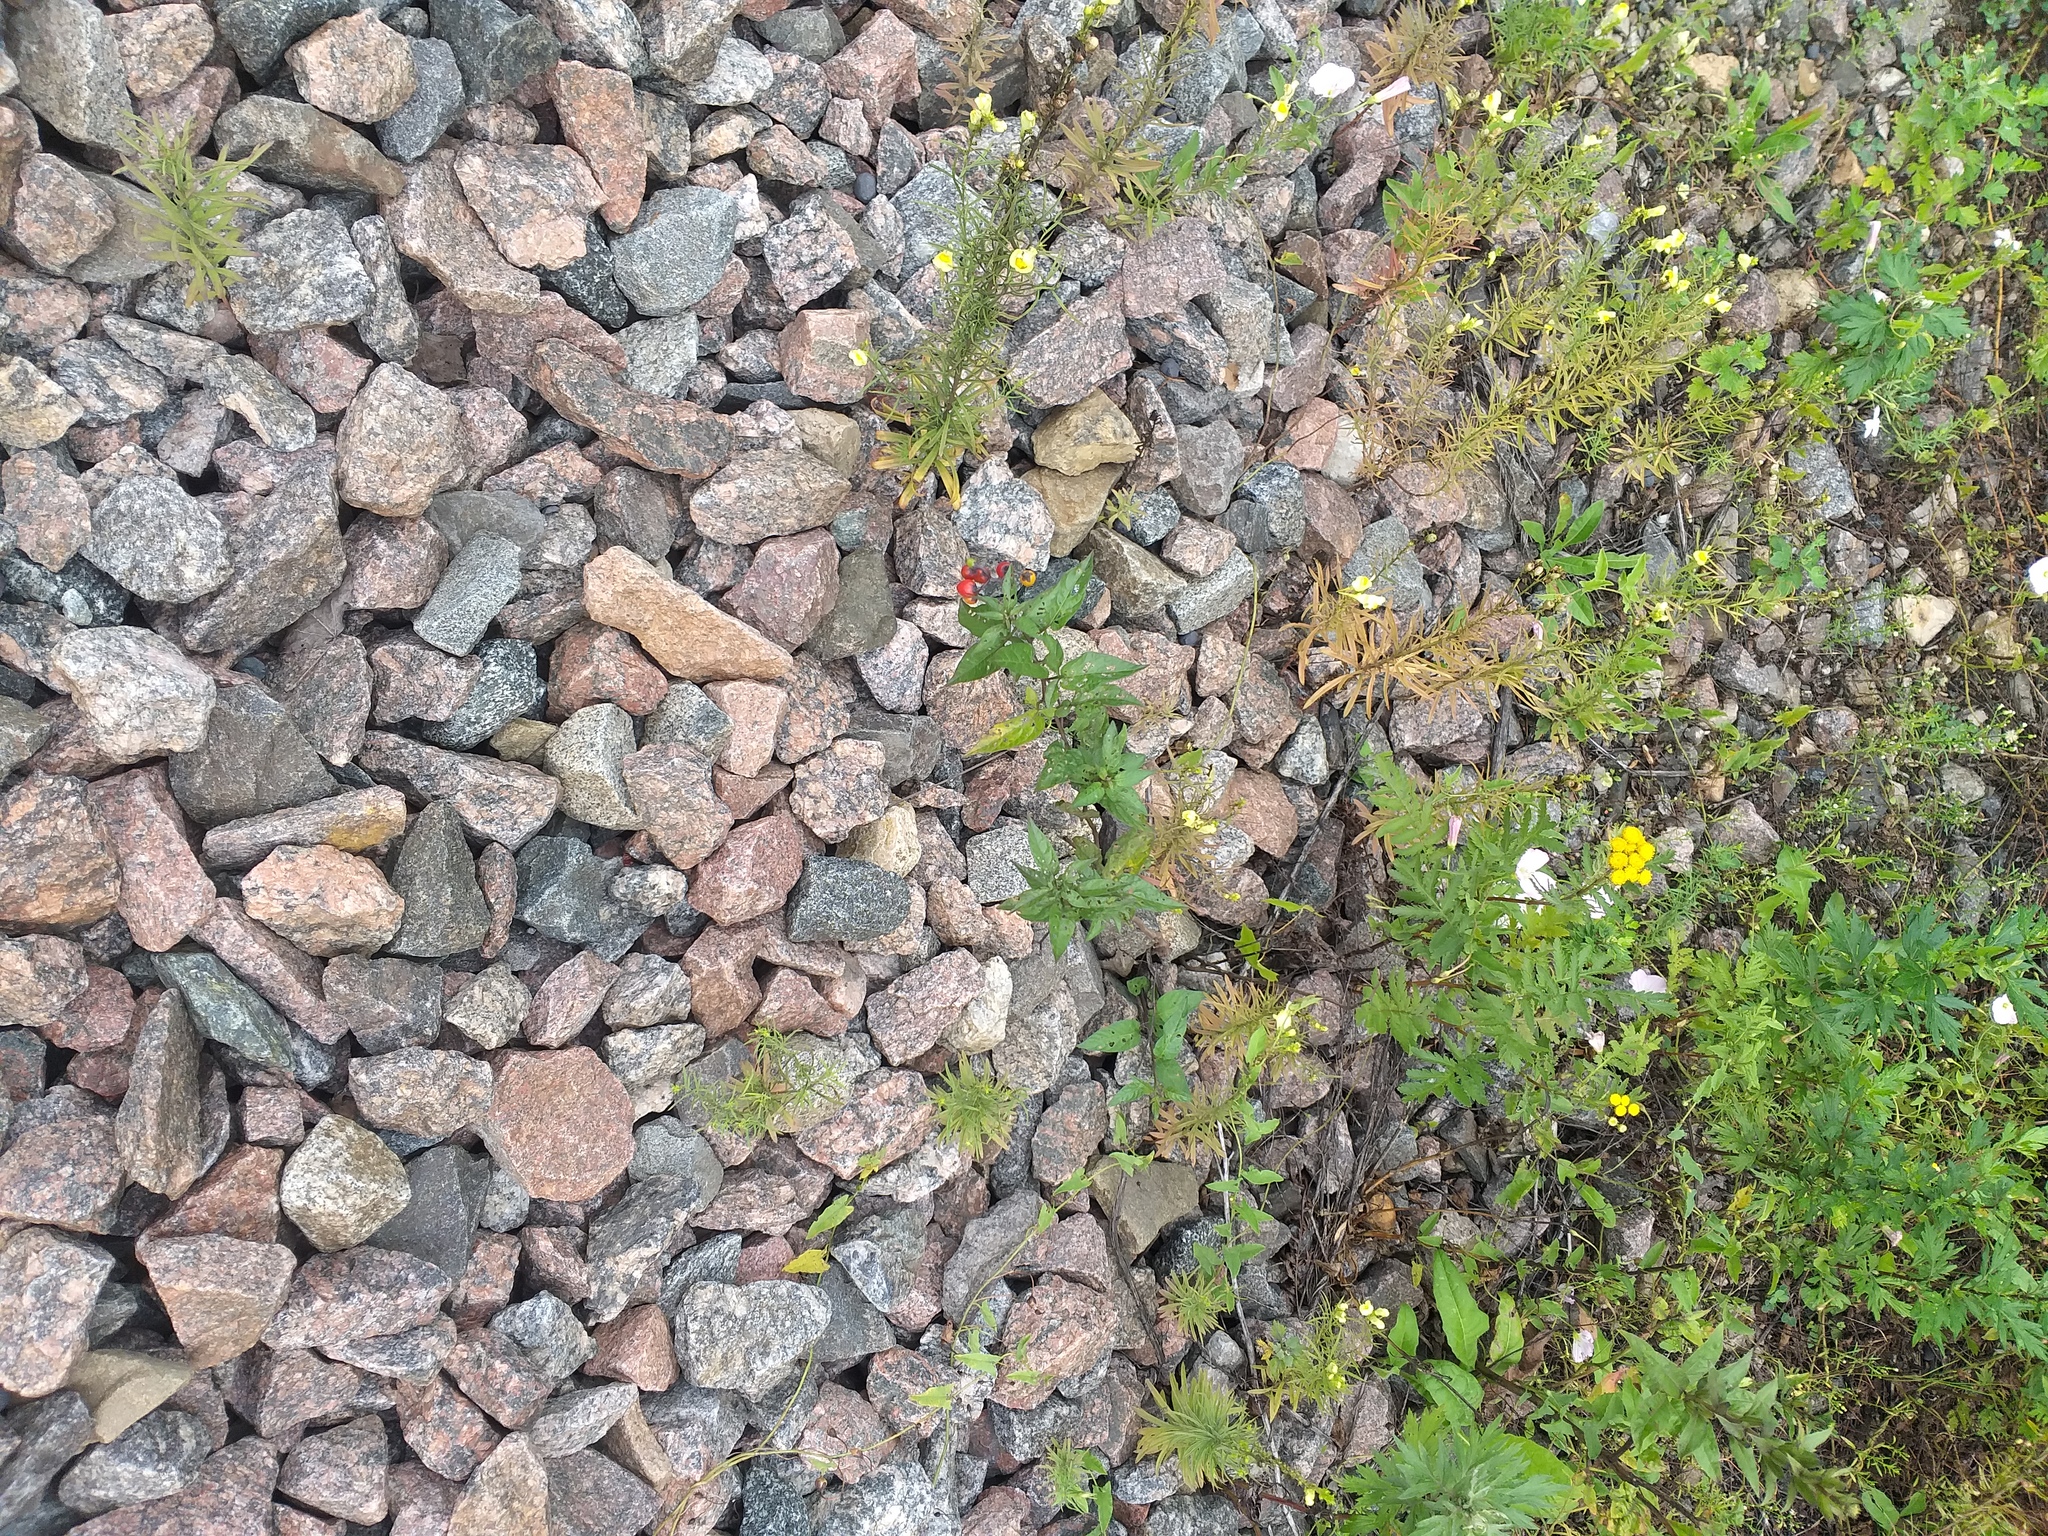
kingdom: Plantae
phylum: Tracheophyta
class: Magnoliopsida
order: Solanales
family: Solanaceae
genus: Solanum
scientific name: Solanum dulcamara
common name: Climbing nightshade
